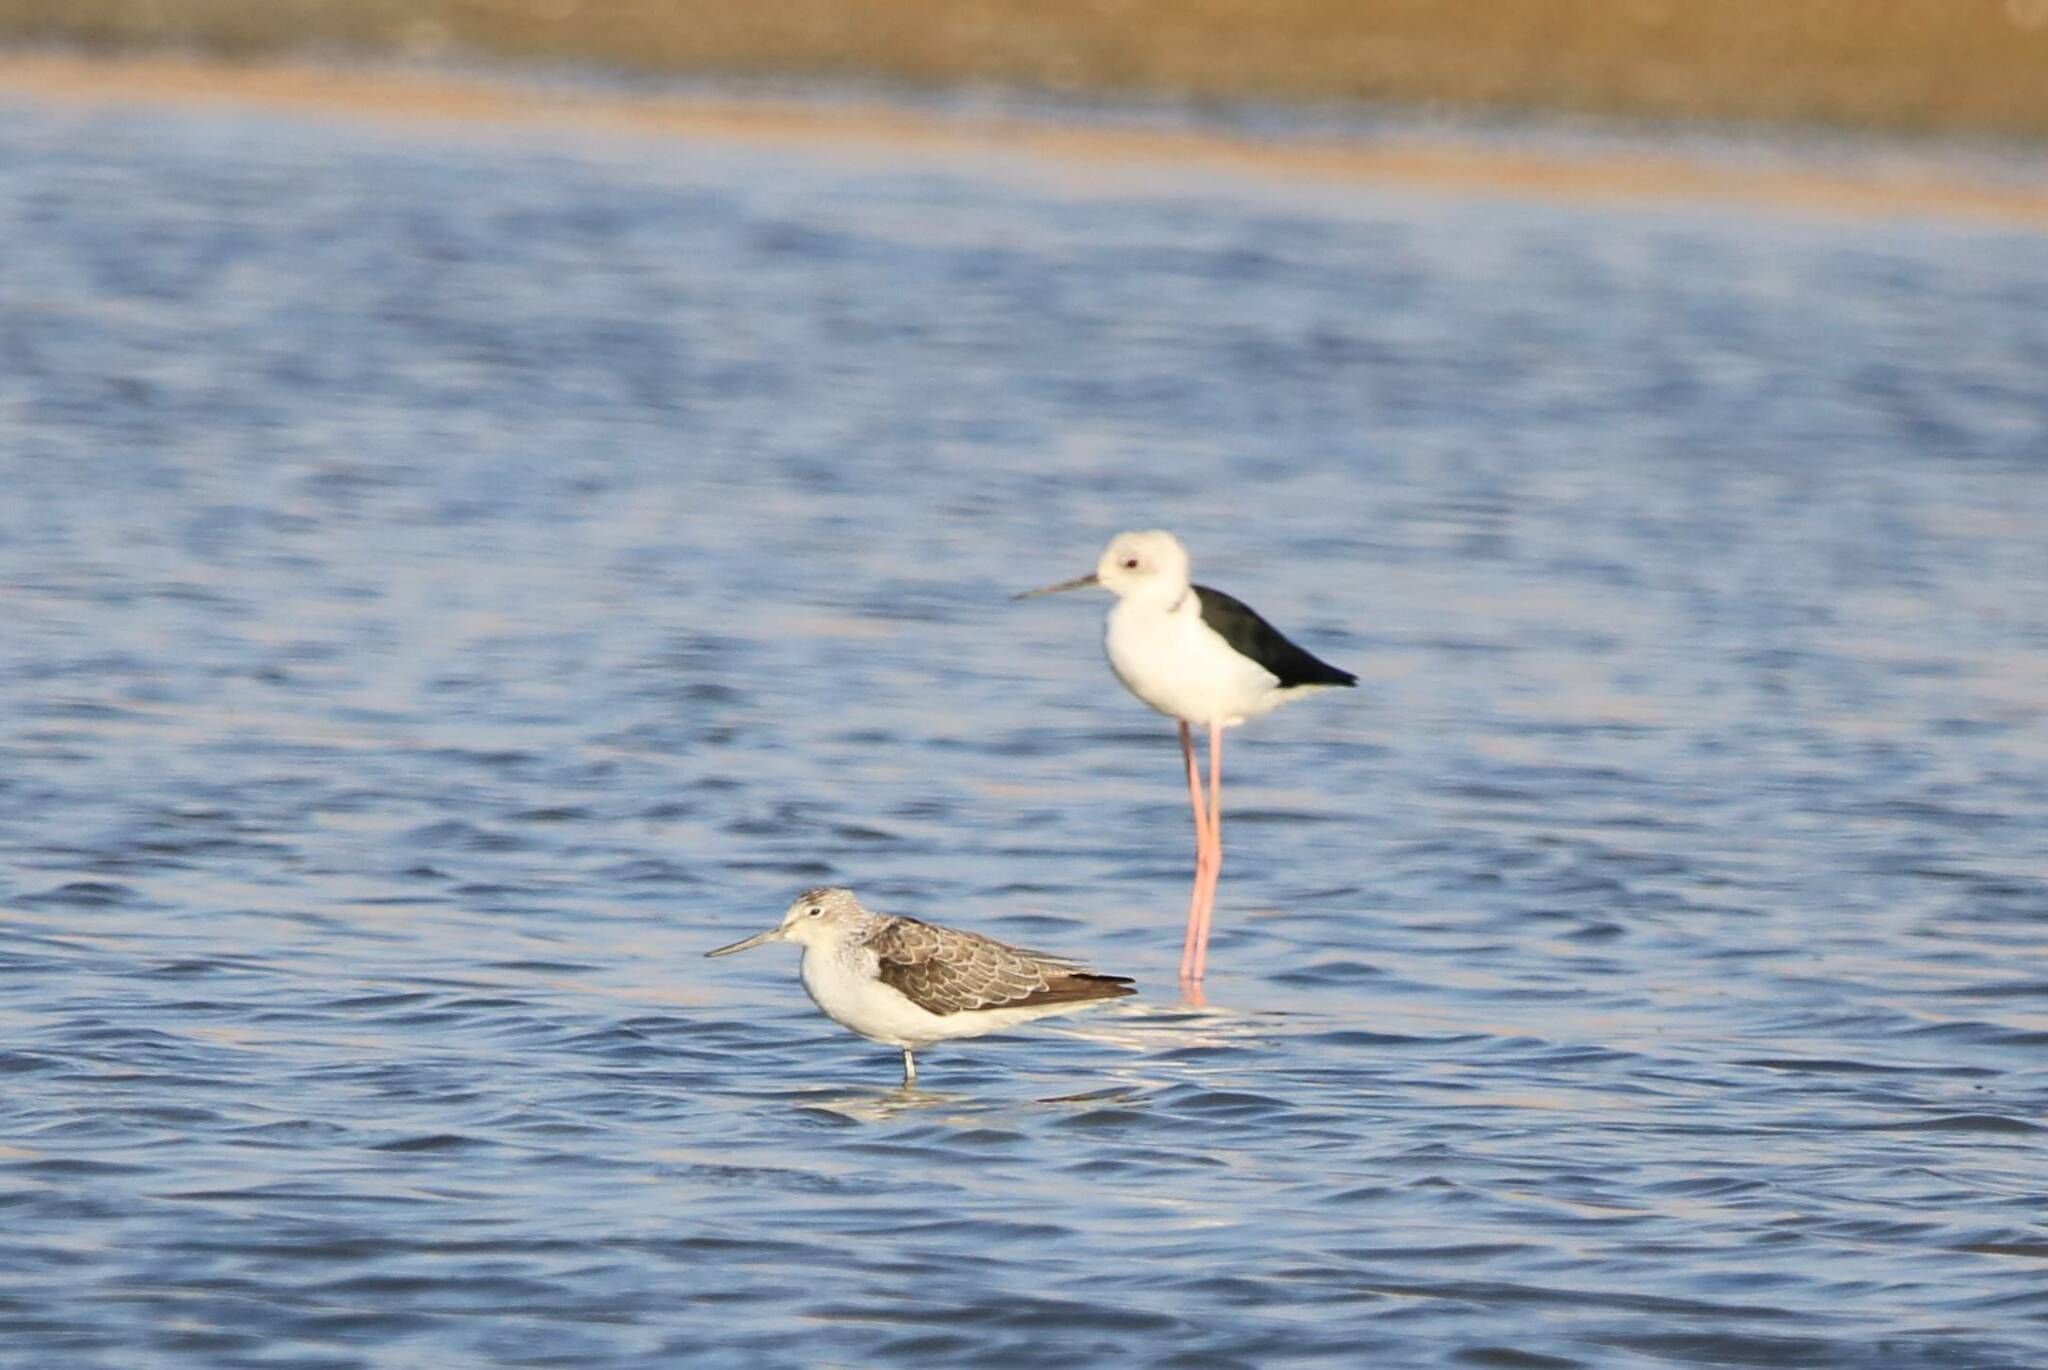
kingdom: Animalia
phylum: Chordata
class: Aves
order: Charadriiformes
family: Scolopacidae
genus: Tringa
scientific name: Tringa nebularia
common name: Common greenshank
